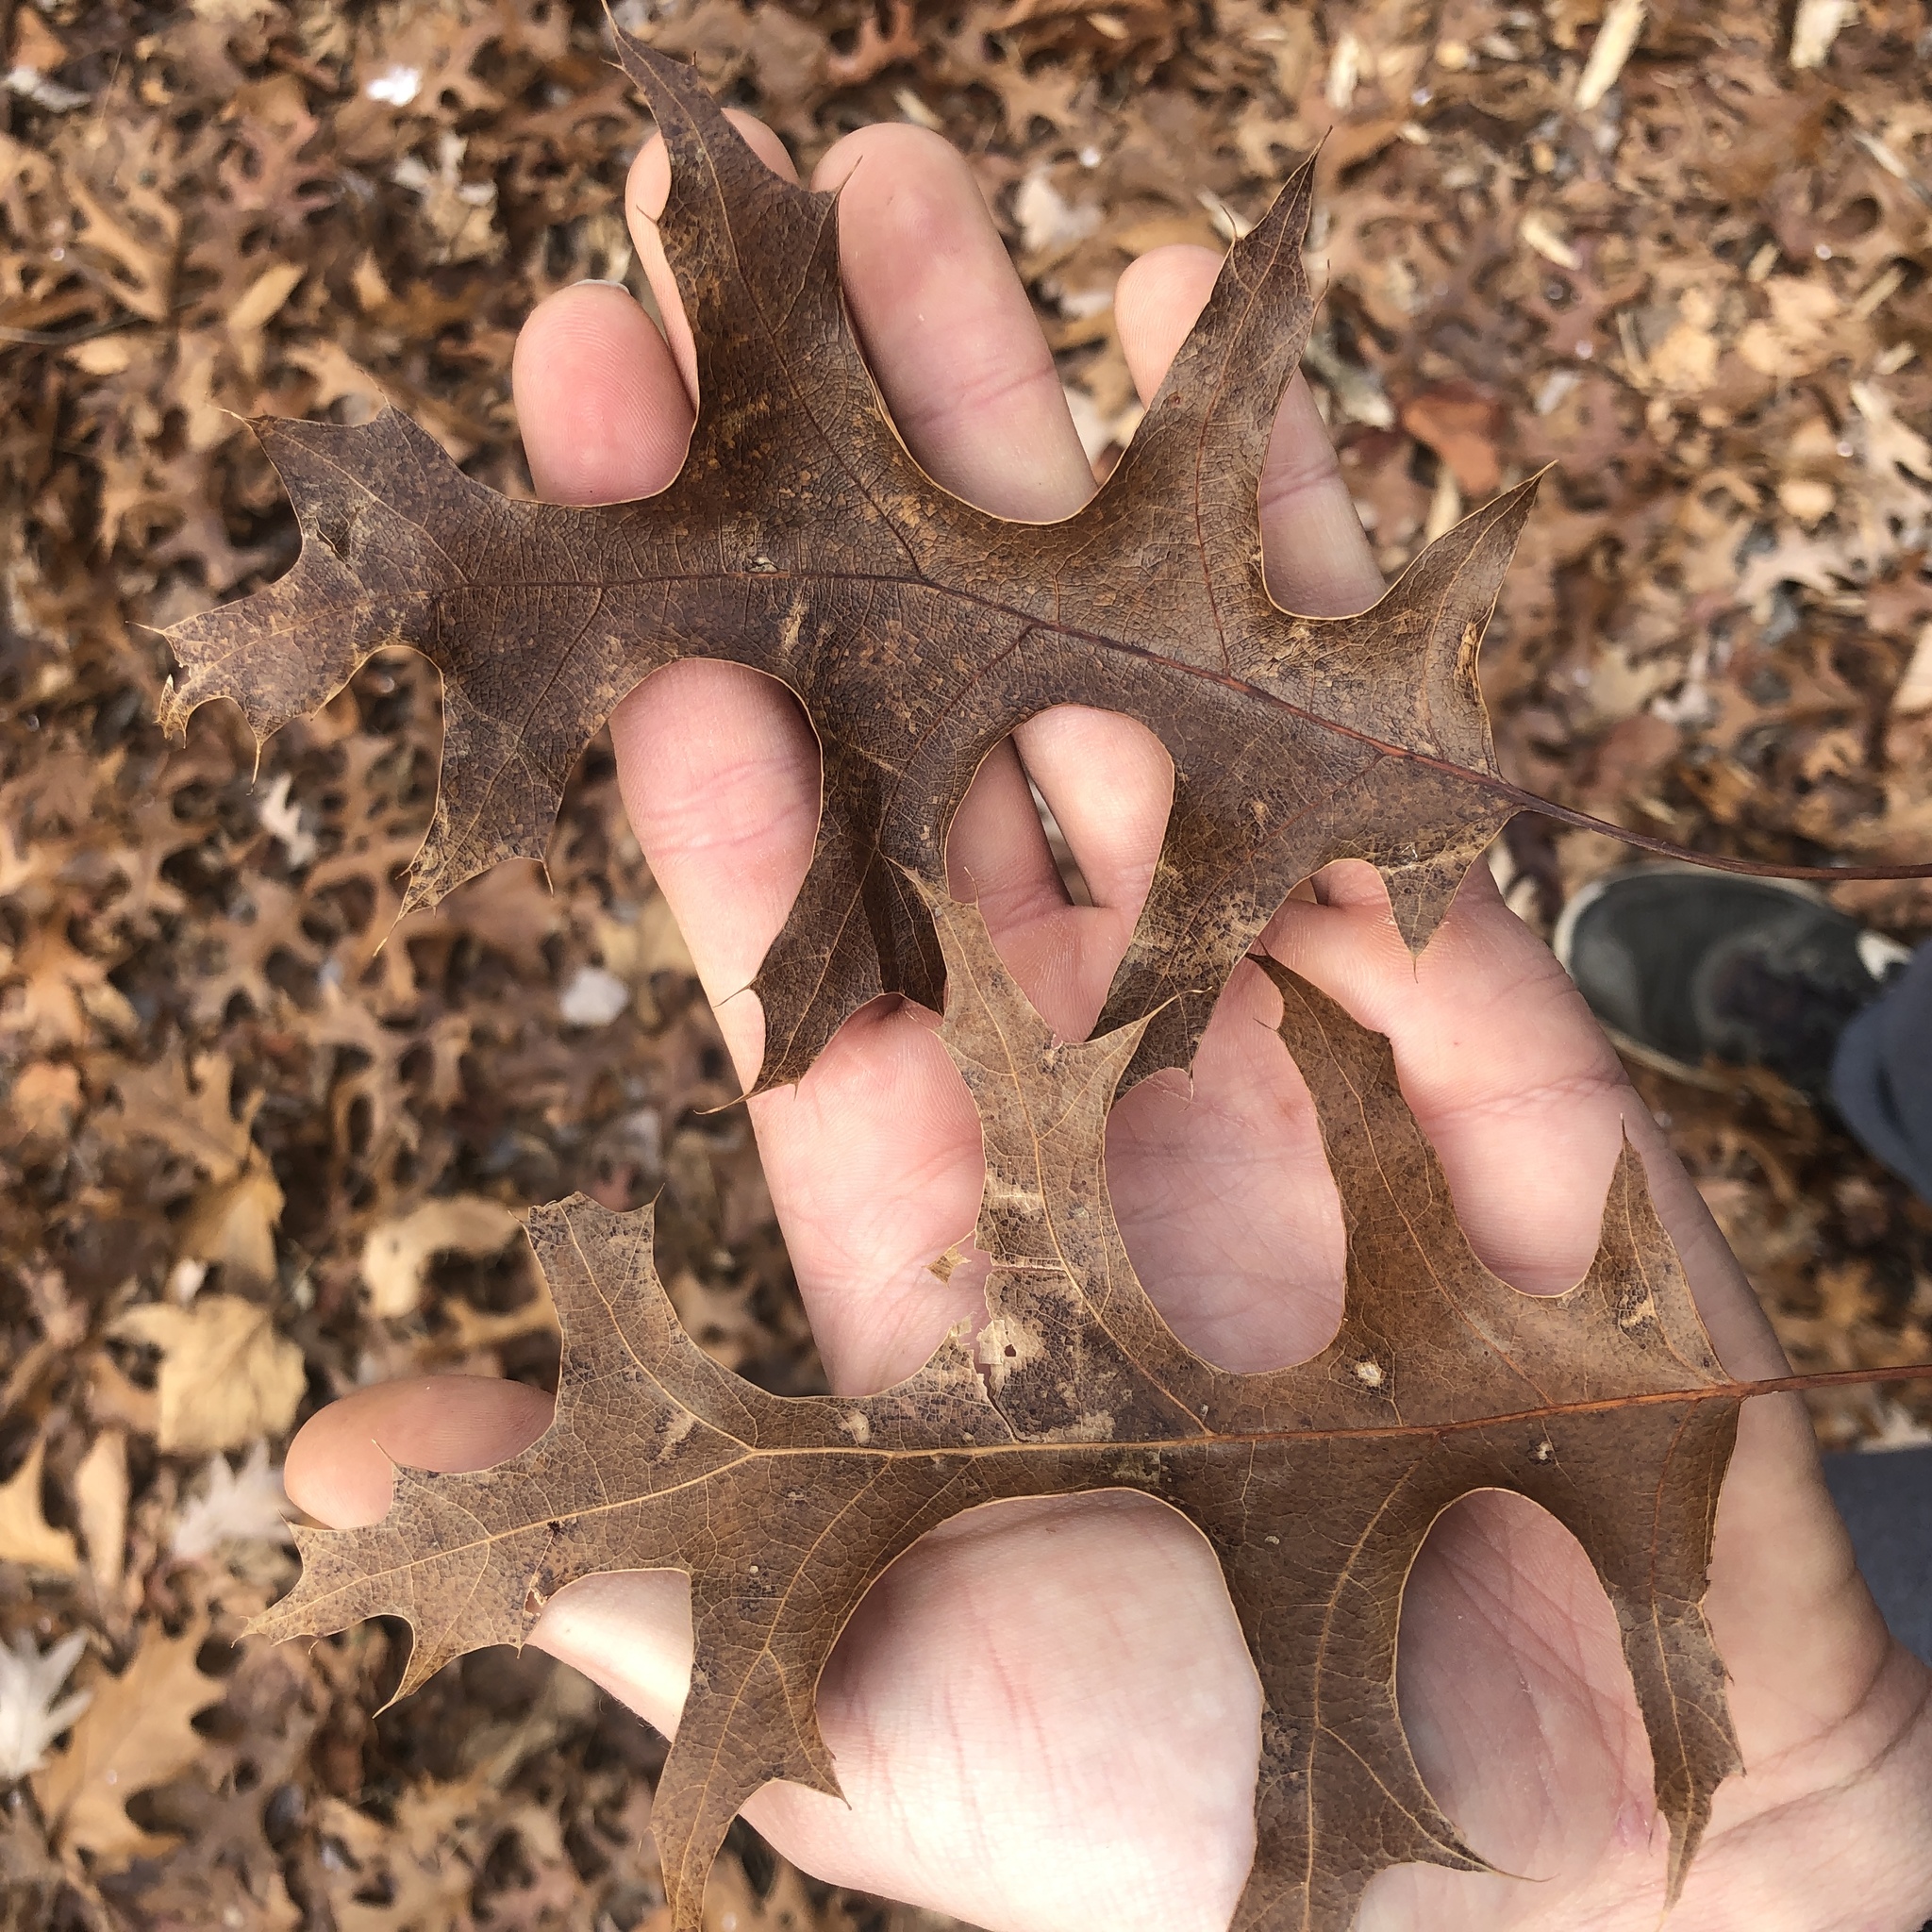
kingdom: Plantae
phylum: Tracheophyta
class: Magnoliopsida
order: Fagales
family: Fagaceae
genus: Quercus
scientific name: Quercus coccinea
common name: Scarlet oak
